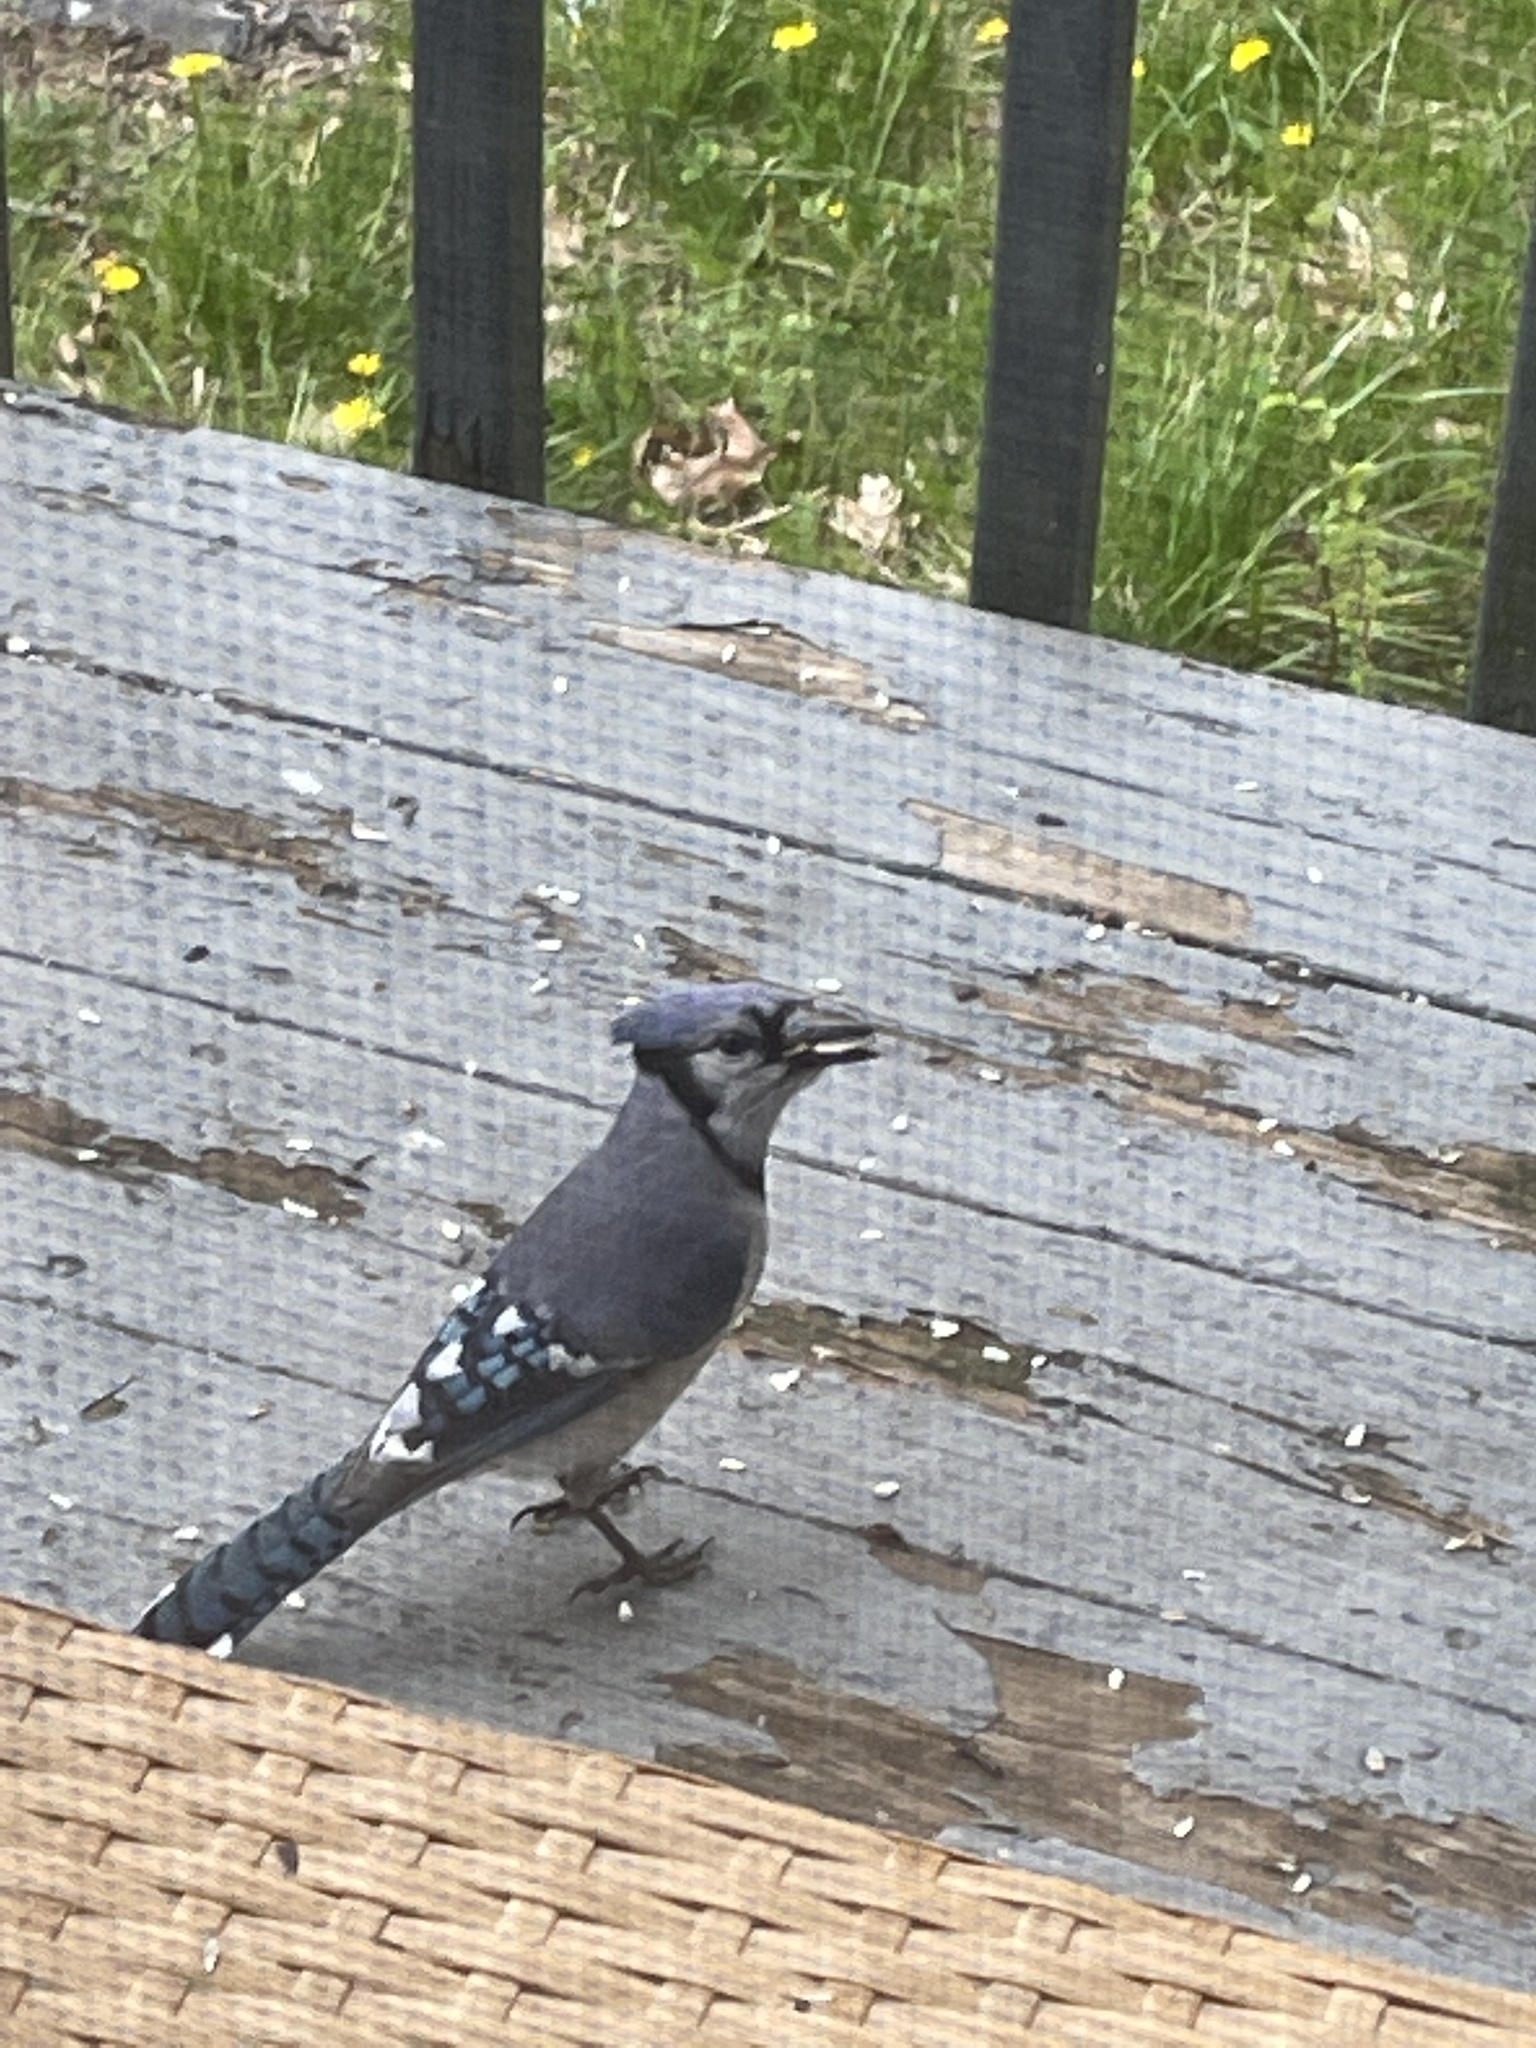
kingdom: Animalia
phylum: Chordata
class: Aves
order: Passeriformes
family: Corvidae
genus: Cyanocitta
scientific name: Cyanocitta cristata
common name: Blue jay
